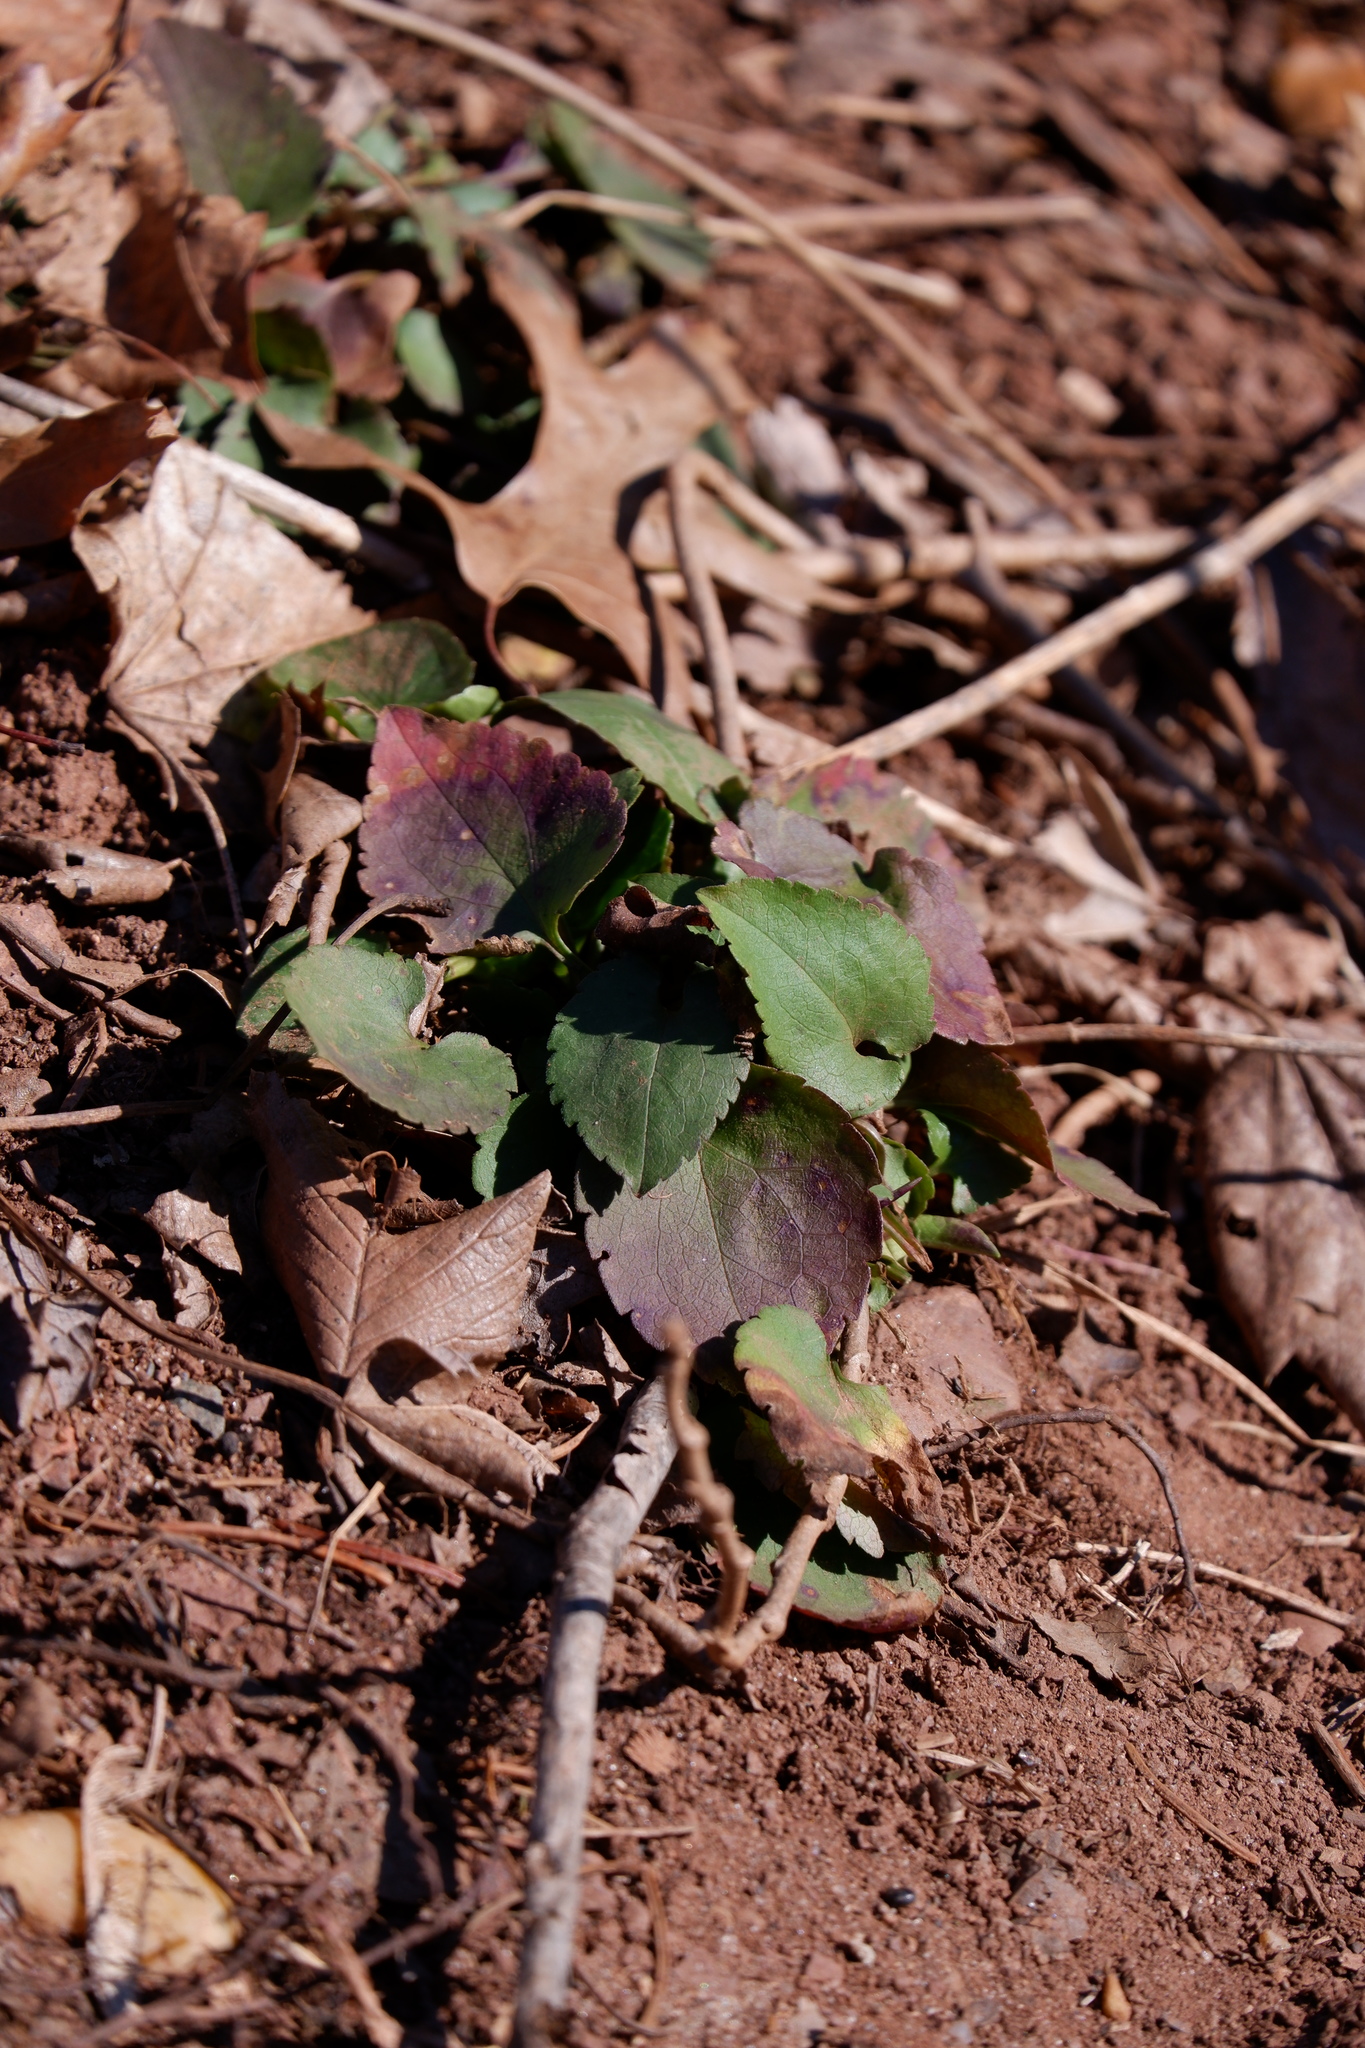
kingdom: Plantae
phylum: Tracheophyta
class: Magnoliopsida
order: Asterales
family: Asteraceae
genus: Symphyotrichum
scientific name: Symphyotrichum cordifolium
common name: Beeweed
